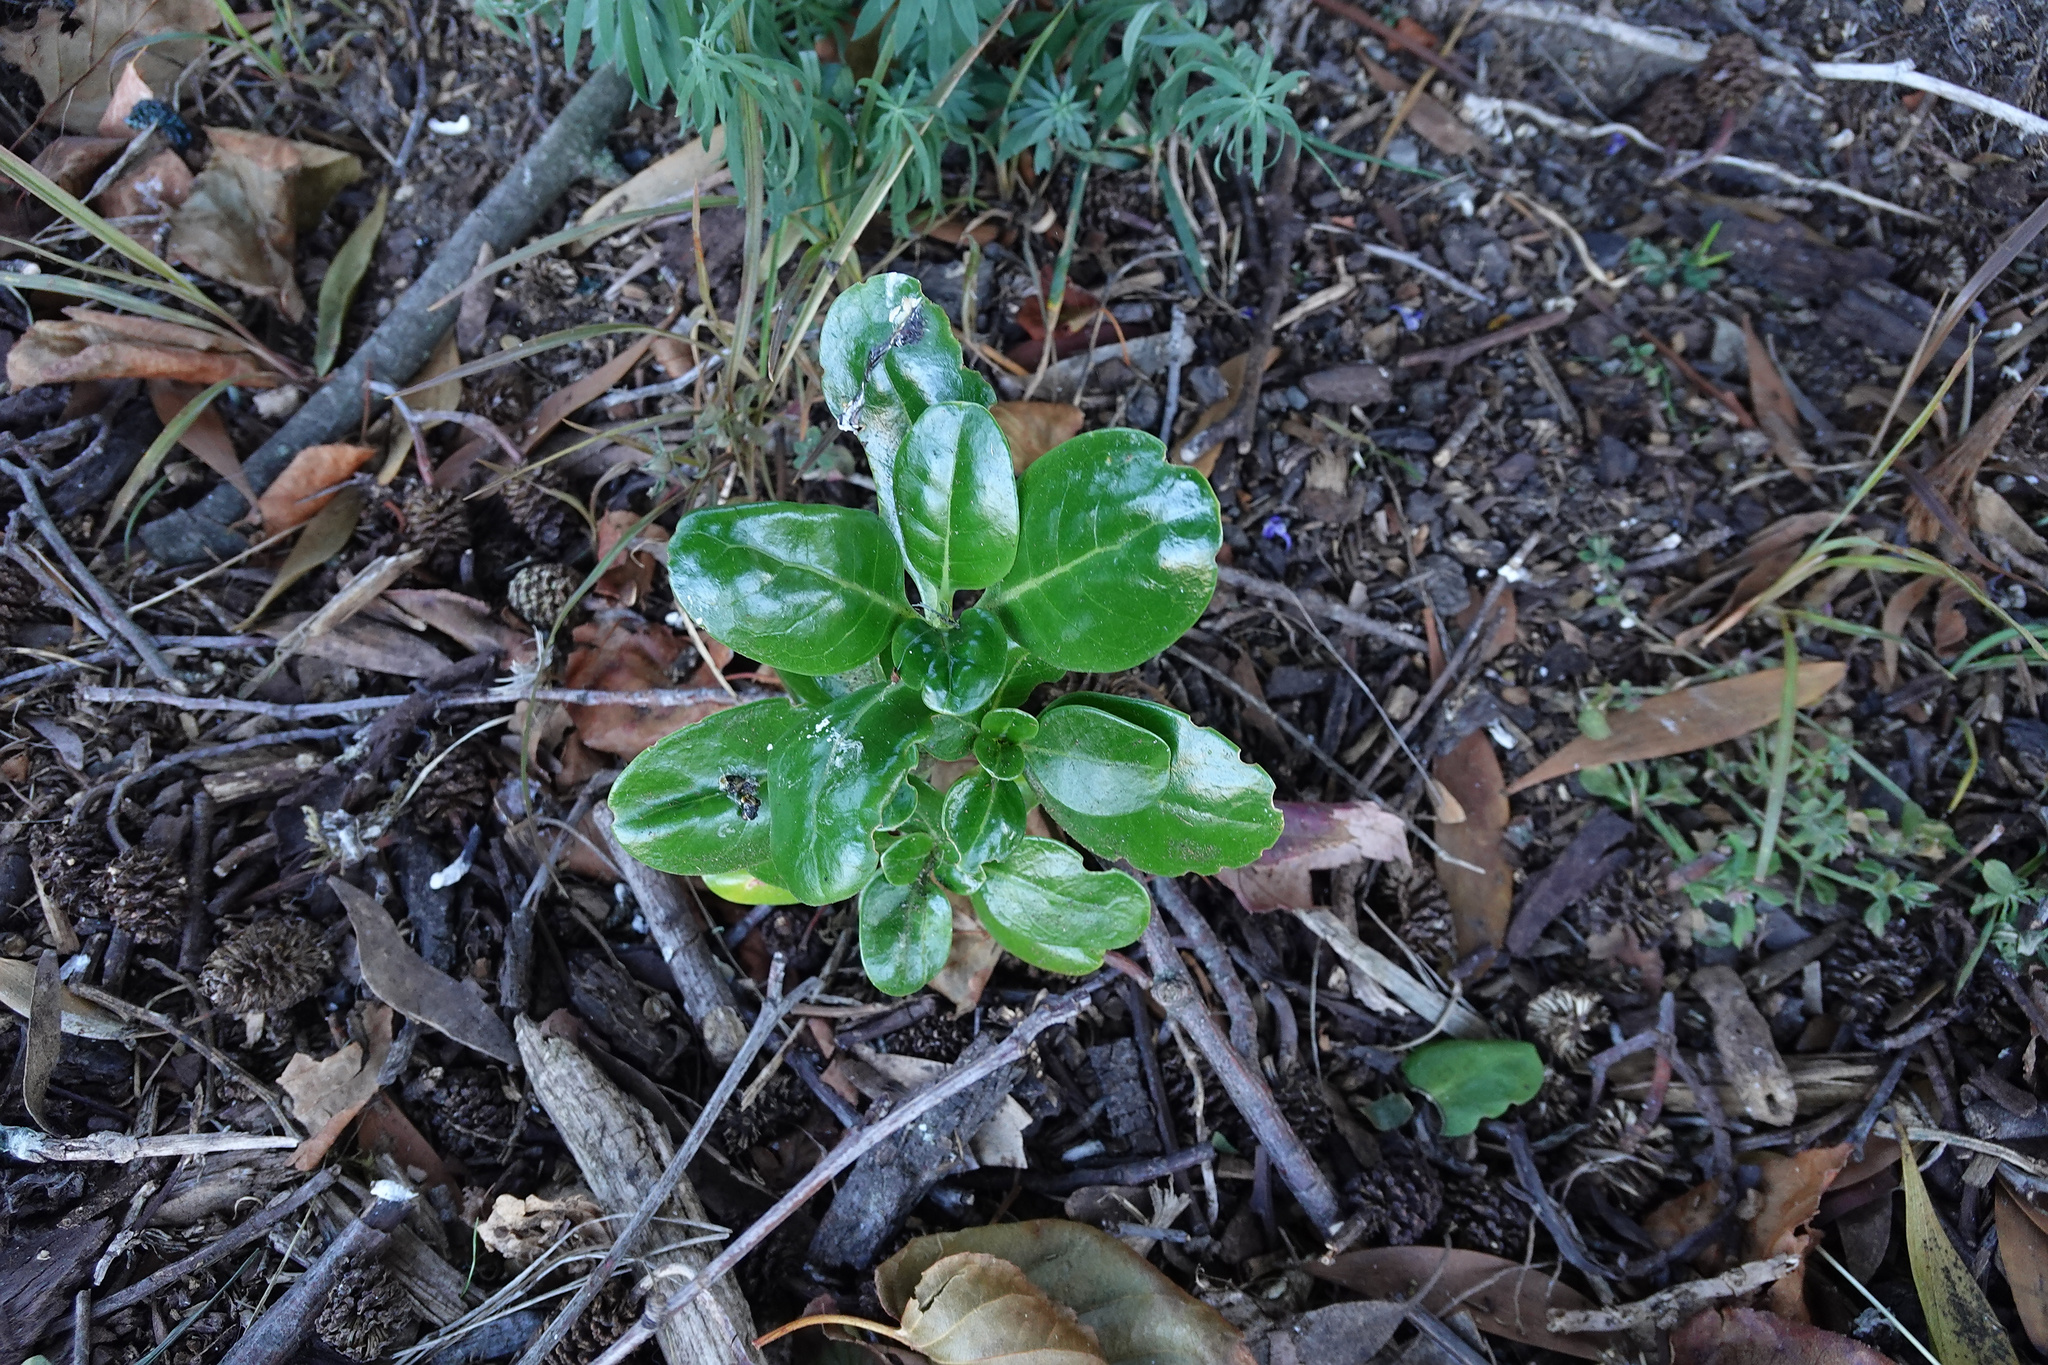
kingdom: Plantae
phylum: Tracheophyta
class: Magnoliopsida
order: Gentianales
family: Rubiaceae
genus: Coprosma
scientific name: Coprosma repens
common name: Tree bedstraw
